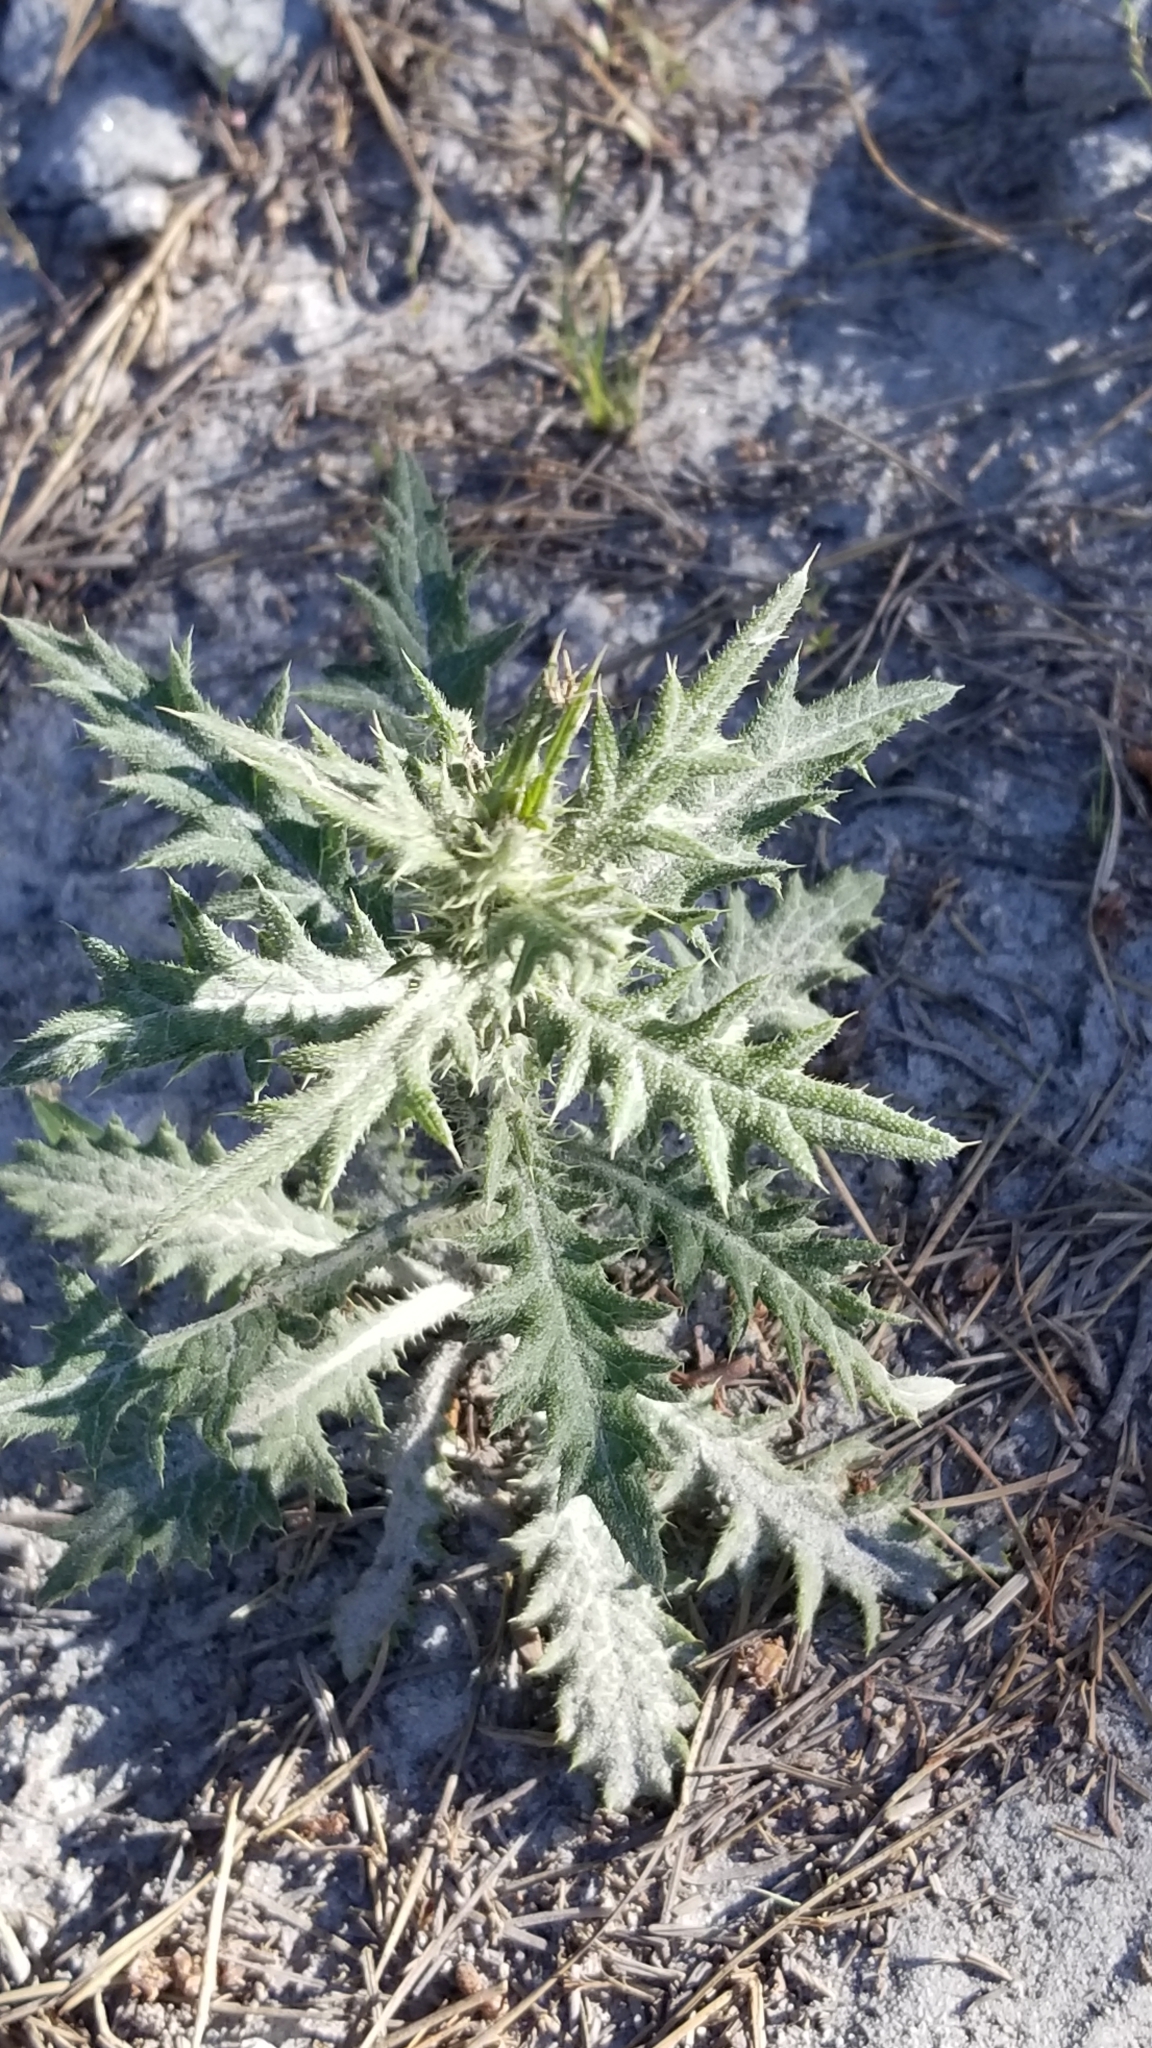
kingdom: Plantae
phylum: Tracheophyta
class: Magnoliopsida
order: Asterales
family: Asteraceae
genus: Cirsium
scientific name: Cirsium vulgare
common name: Bull thistle
